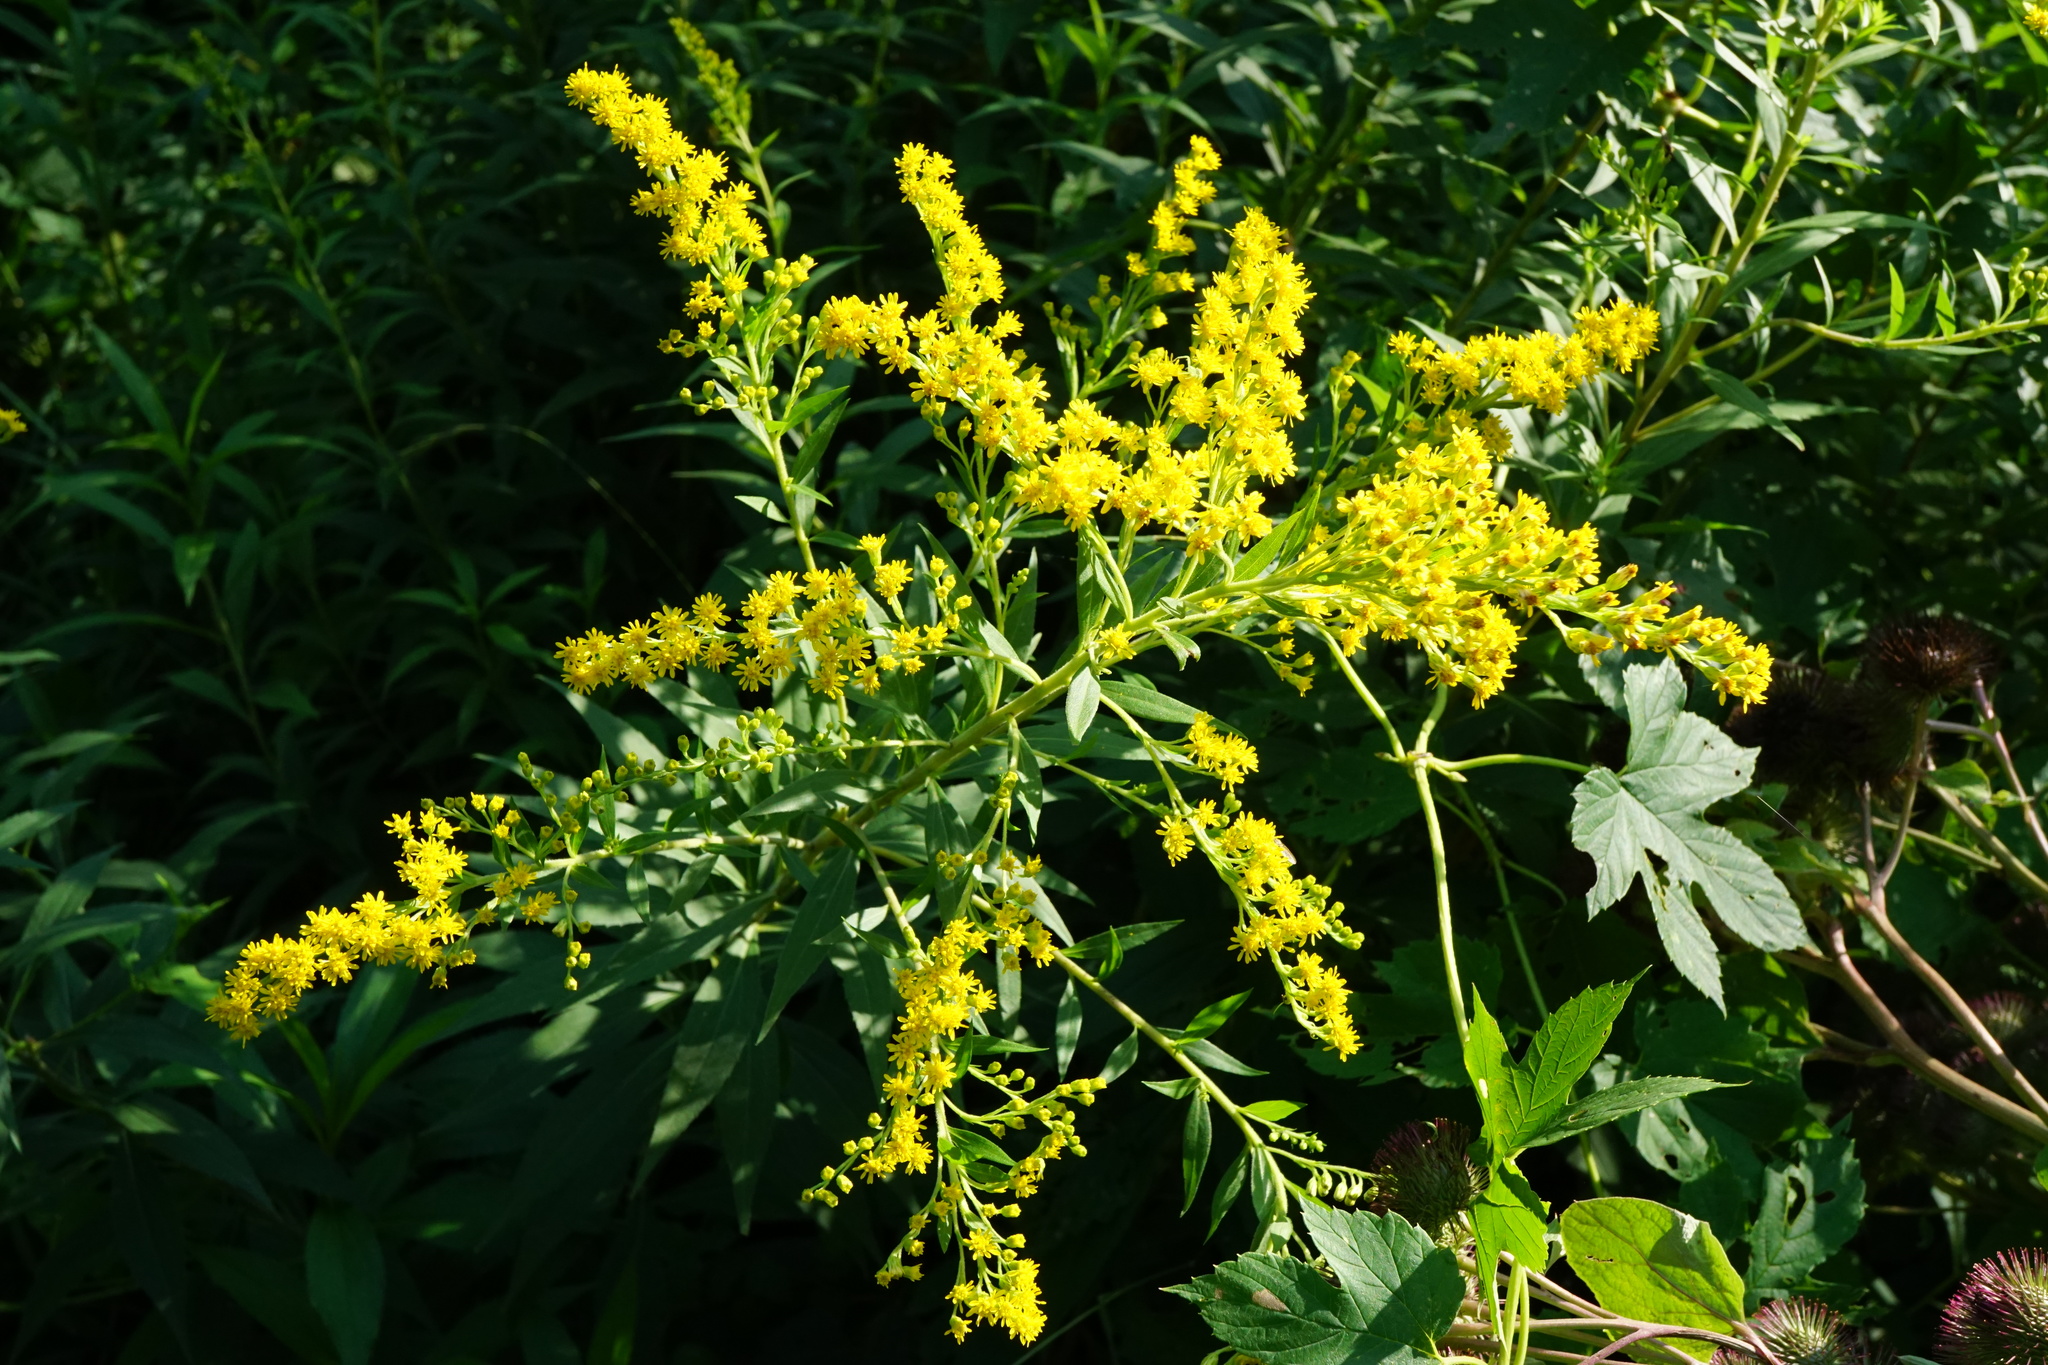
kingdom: Plantae
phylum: Tracheophyta
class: Magnoliopsida
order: Asterales
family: Asteraceae
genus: Solidago
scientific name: Solidago gigantea
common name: Giant goldenrod
